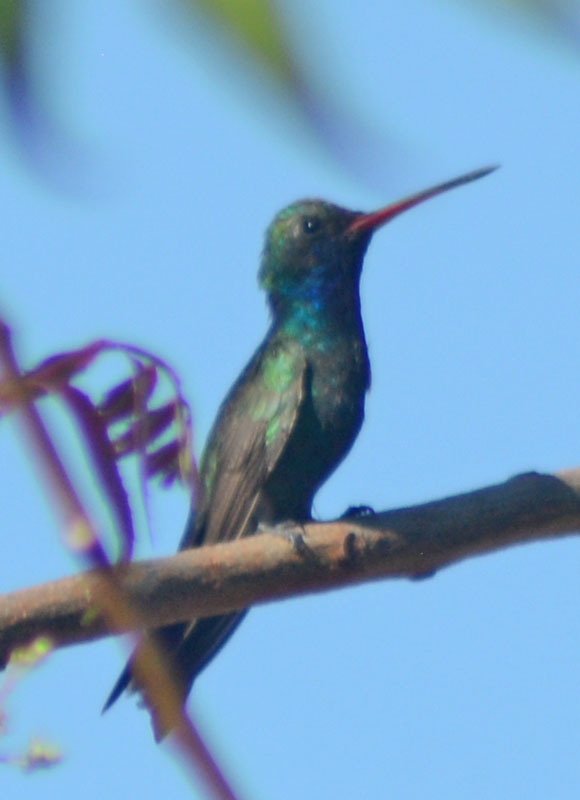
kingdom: Animalia
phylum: Chordata
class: Aves
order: Apodiformes
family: Trochilidae
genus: Cynanthus
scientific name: Cynanthus latirostris
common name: Broad-billed hummingbird
